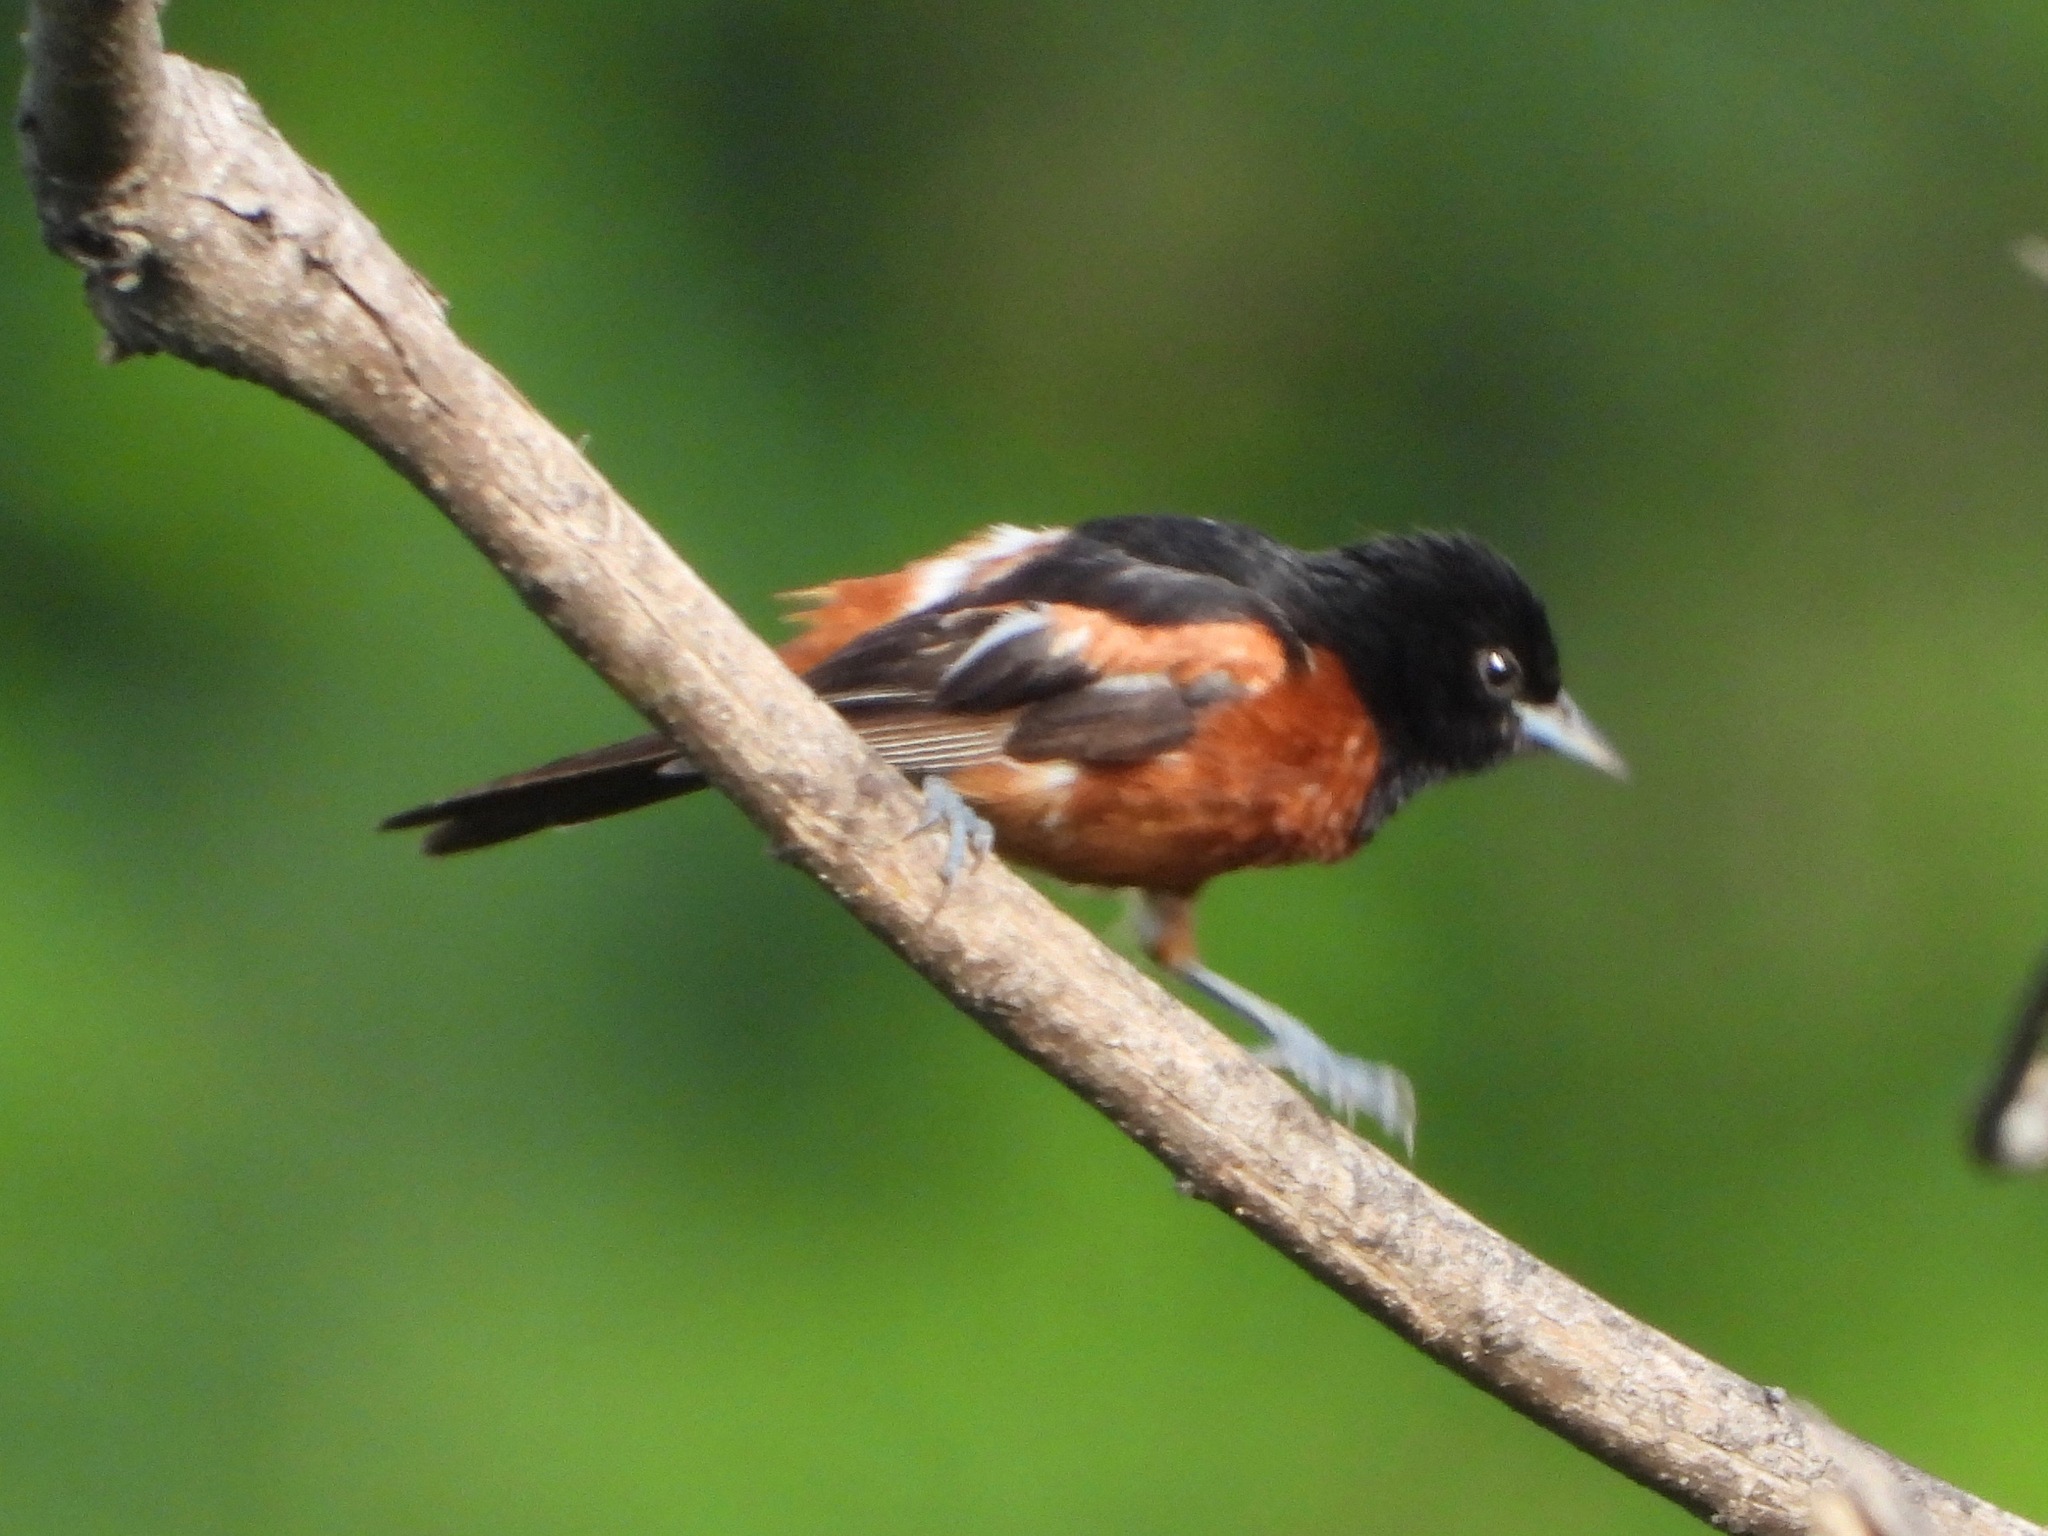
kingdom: Animalia
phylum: Chordata
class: Aves
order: Passeriformes
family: Icteridae
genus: Icterus
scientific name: Icterus spurius
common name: Orchard oriole
